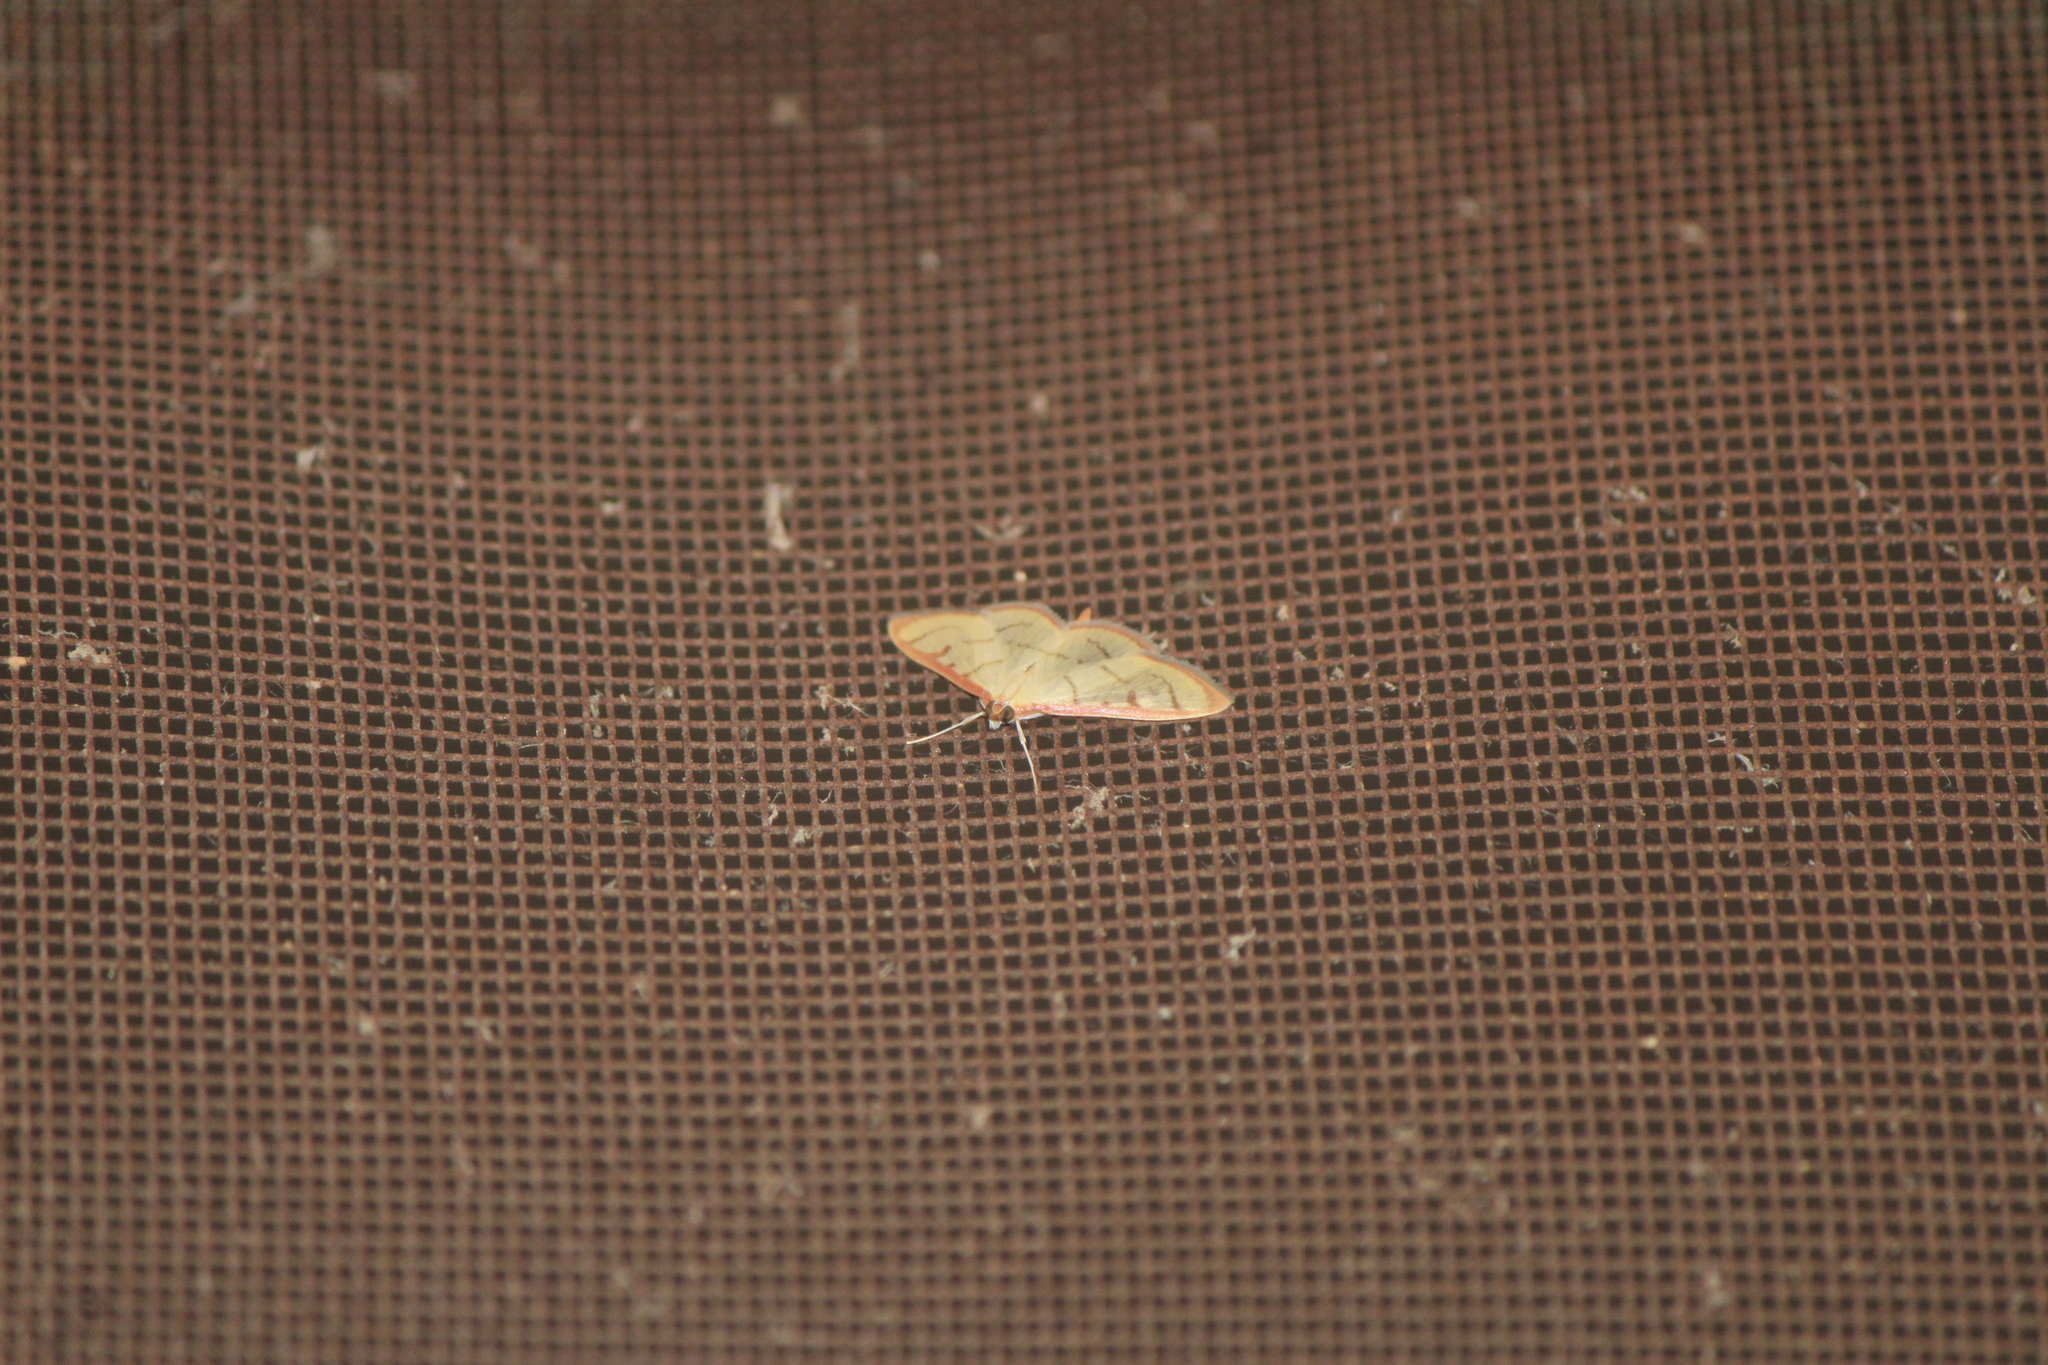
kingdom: Animalia
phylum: Arthropoda
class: Insecta
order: Lepidoptera
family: Crambidae
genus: Neohelvibotys
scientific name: Neohelvibotys neohelvialis
